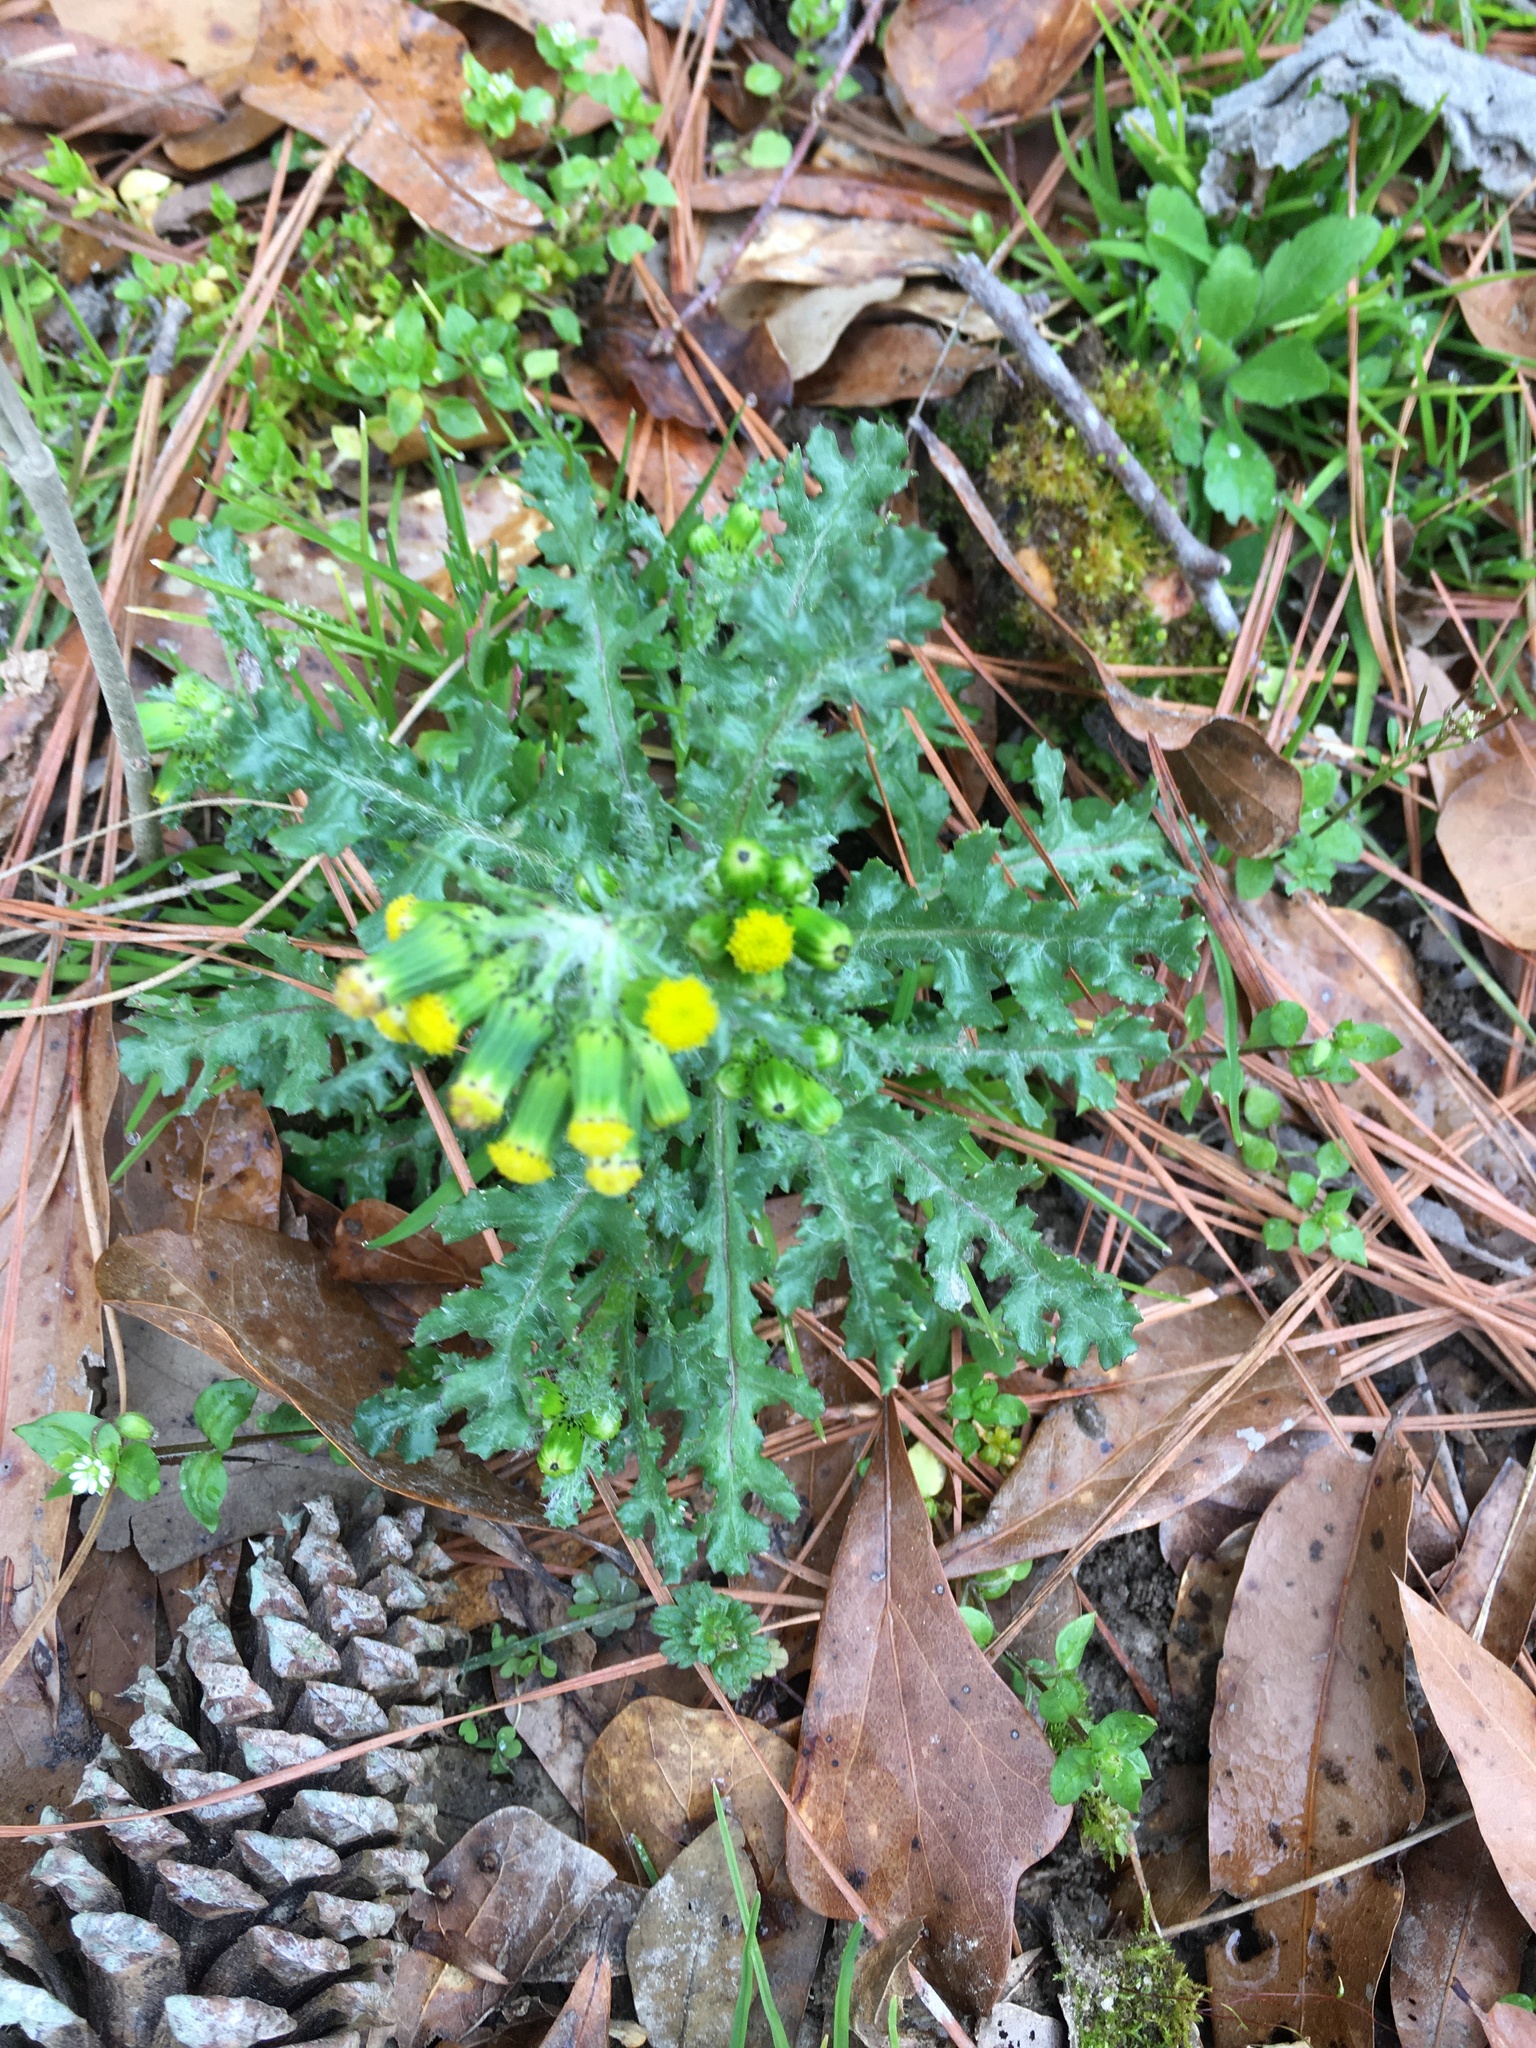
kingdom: Plantae
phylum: Tracheophyta
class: Magnoliopsida
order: Asterales
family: Asteraceae
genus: Senecio
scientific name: Senecio vulgaris
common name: Old-man-in-the-spring
